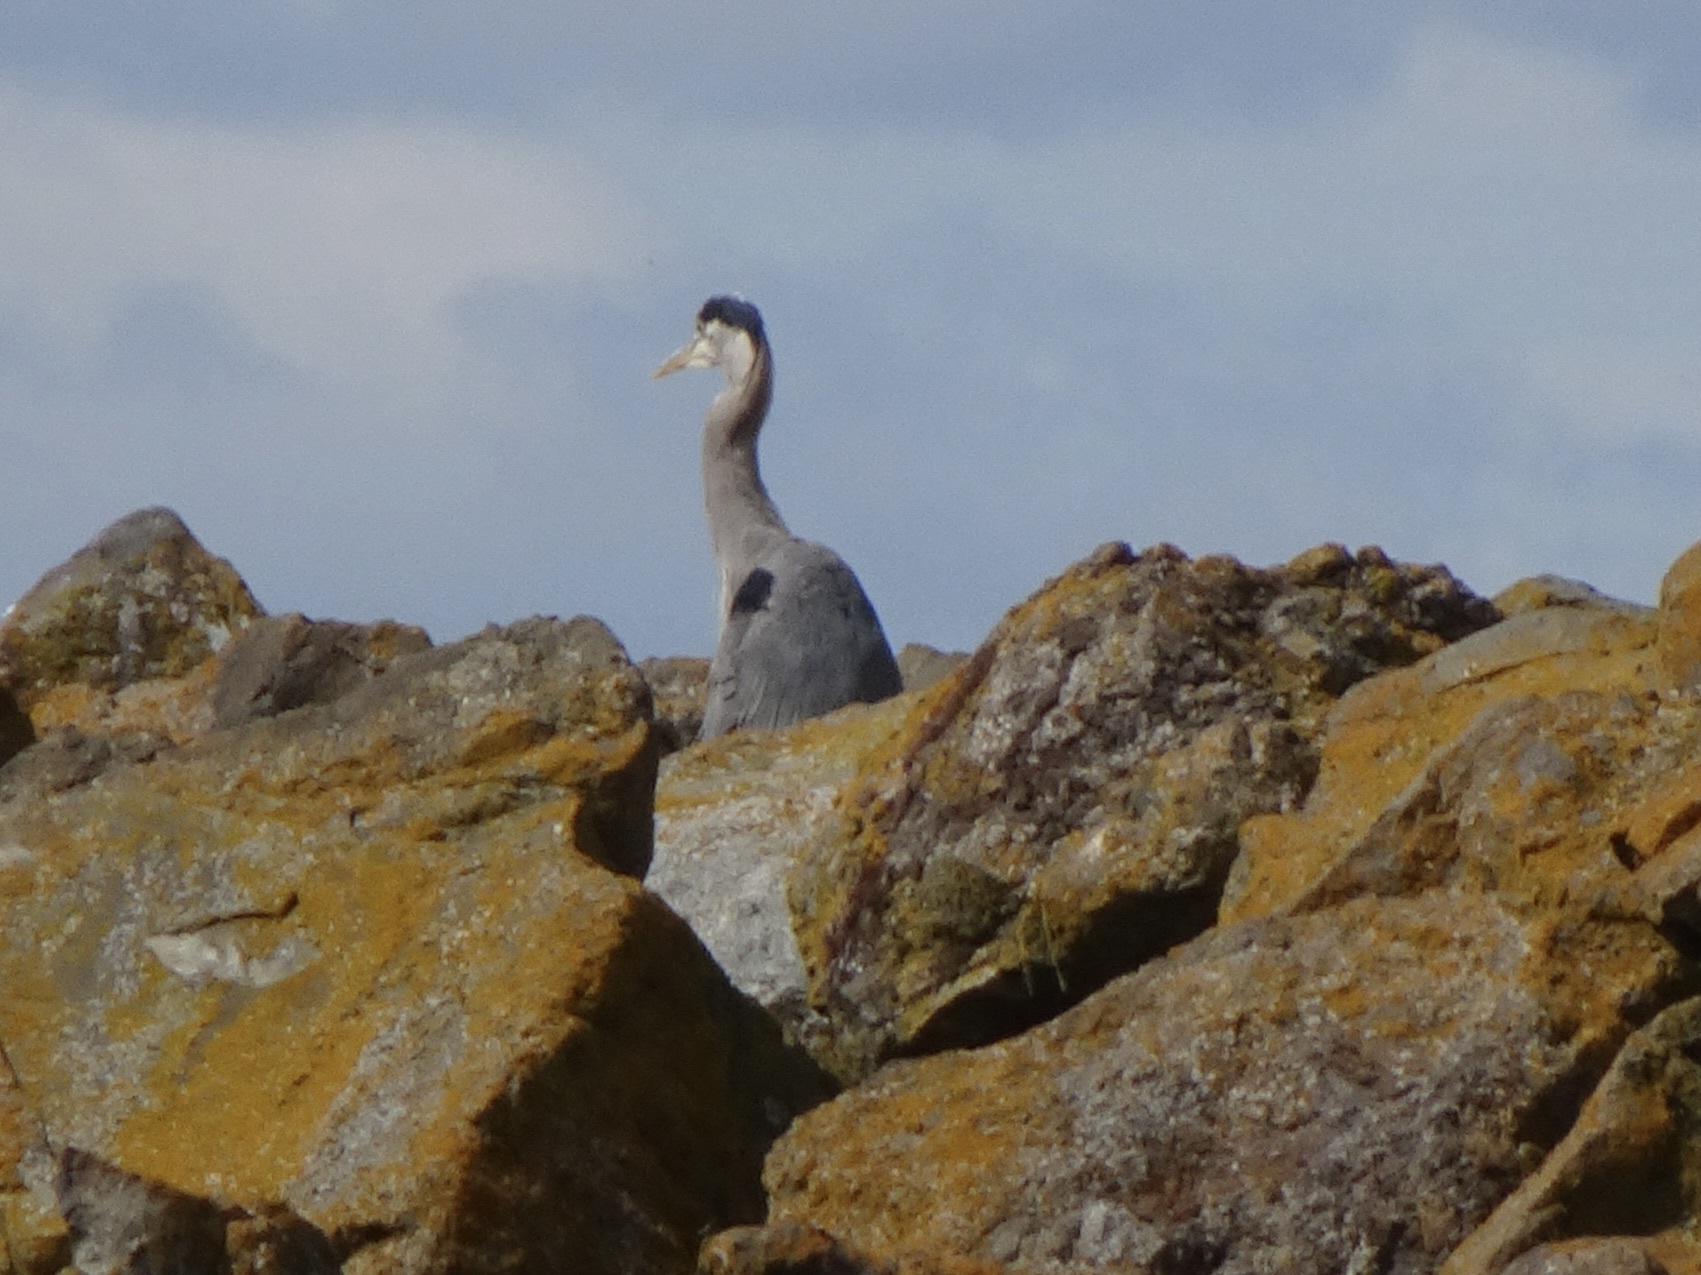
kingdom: Animalia
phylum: Chordata
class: Aves
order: Pelecaniformes
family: Ardeidae
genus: Ardea
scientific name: Ardea herodias
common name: Great blue heron
